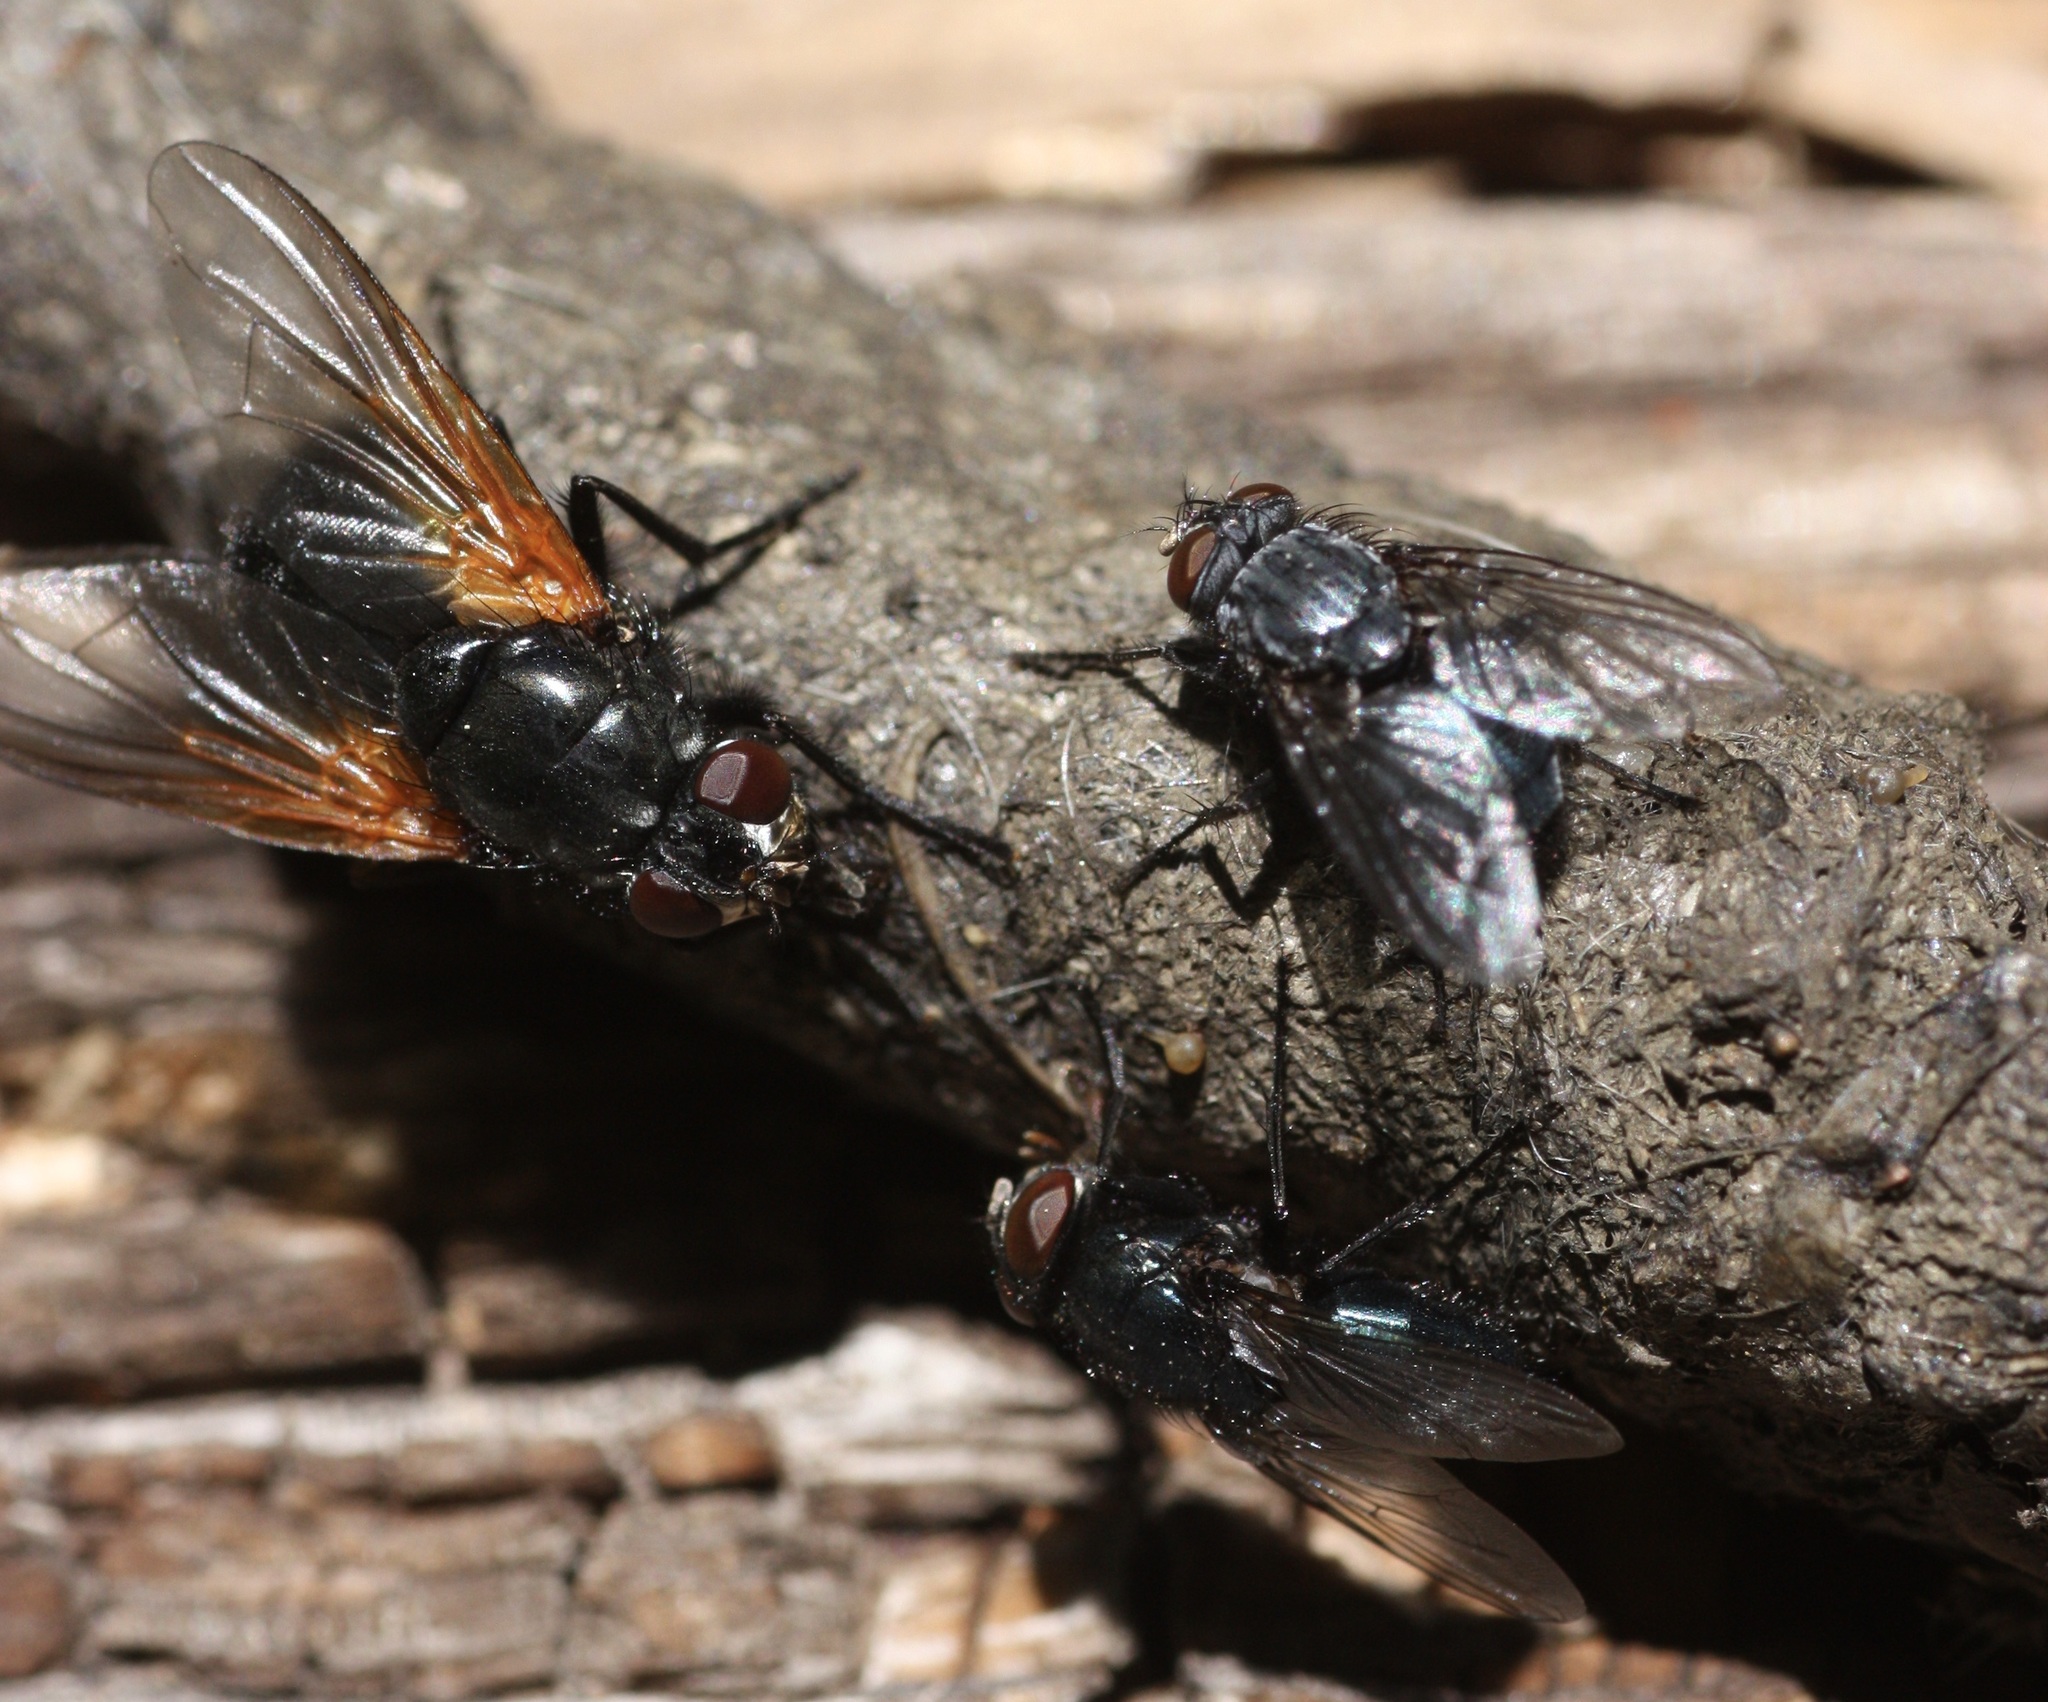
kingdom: Animalia
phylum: Arthropoda
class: Insecta
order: Diptera
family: Muscidae
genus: Mesembrina
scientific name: Mesembrina latreillii
